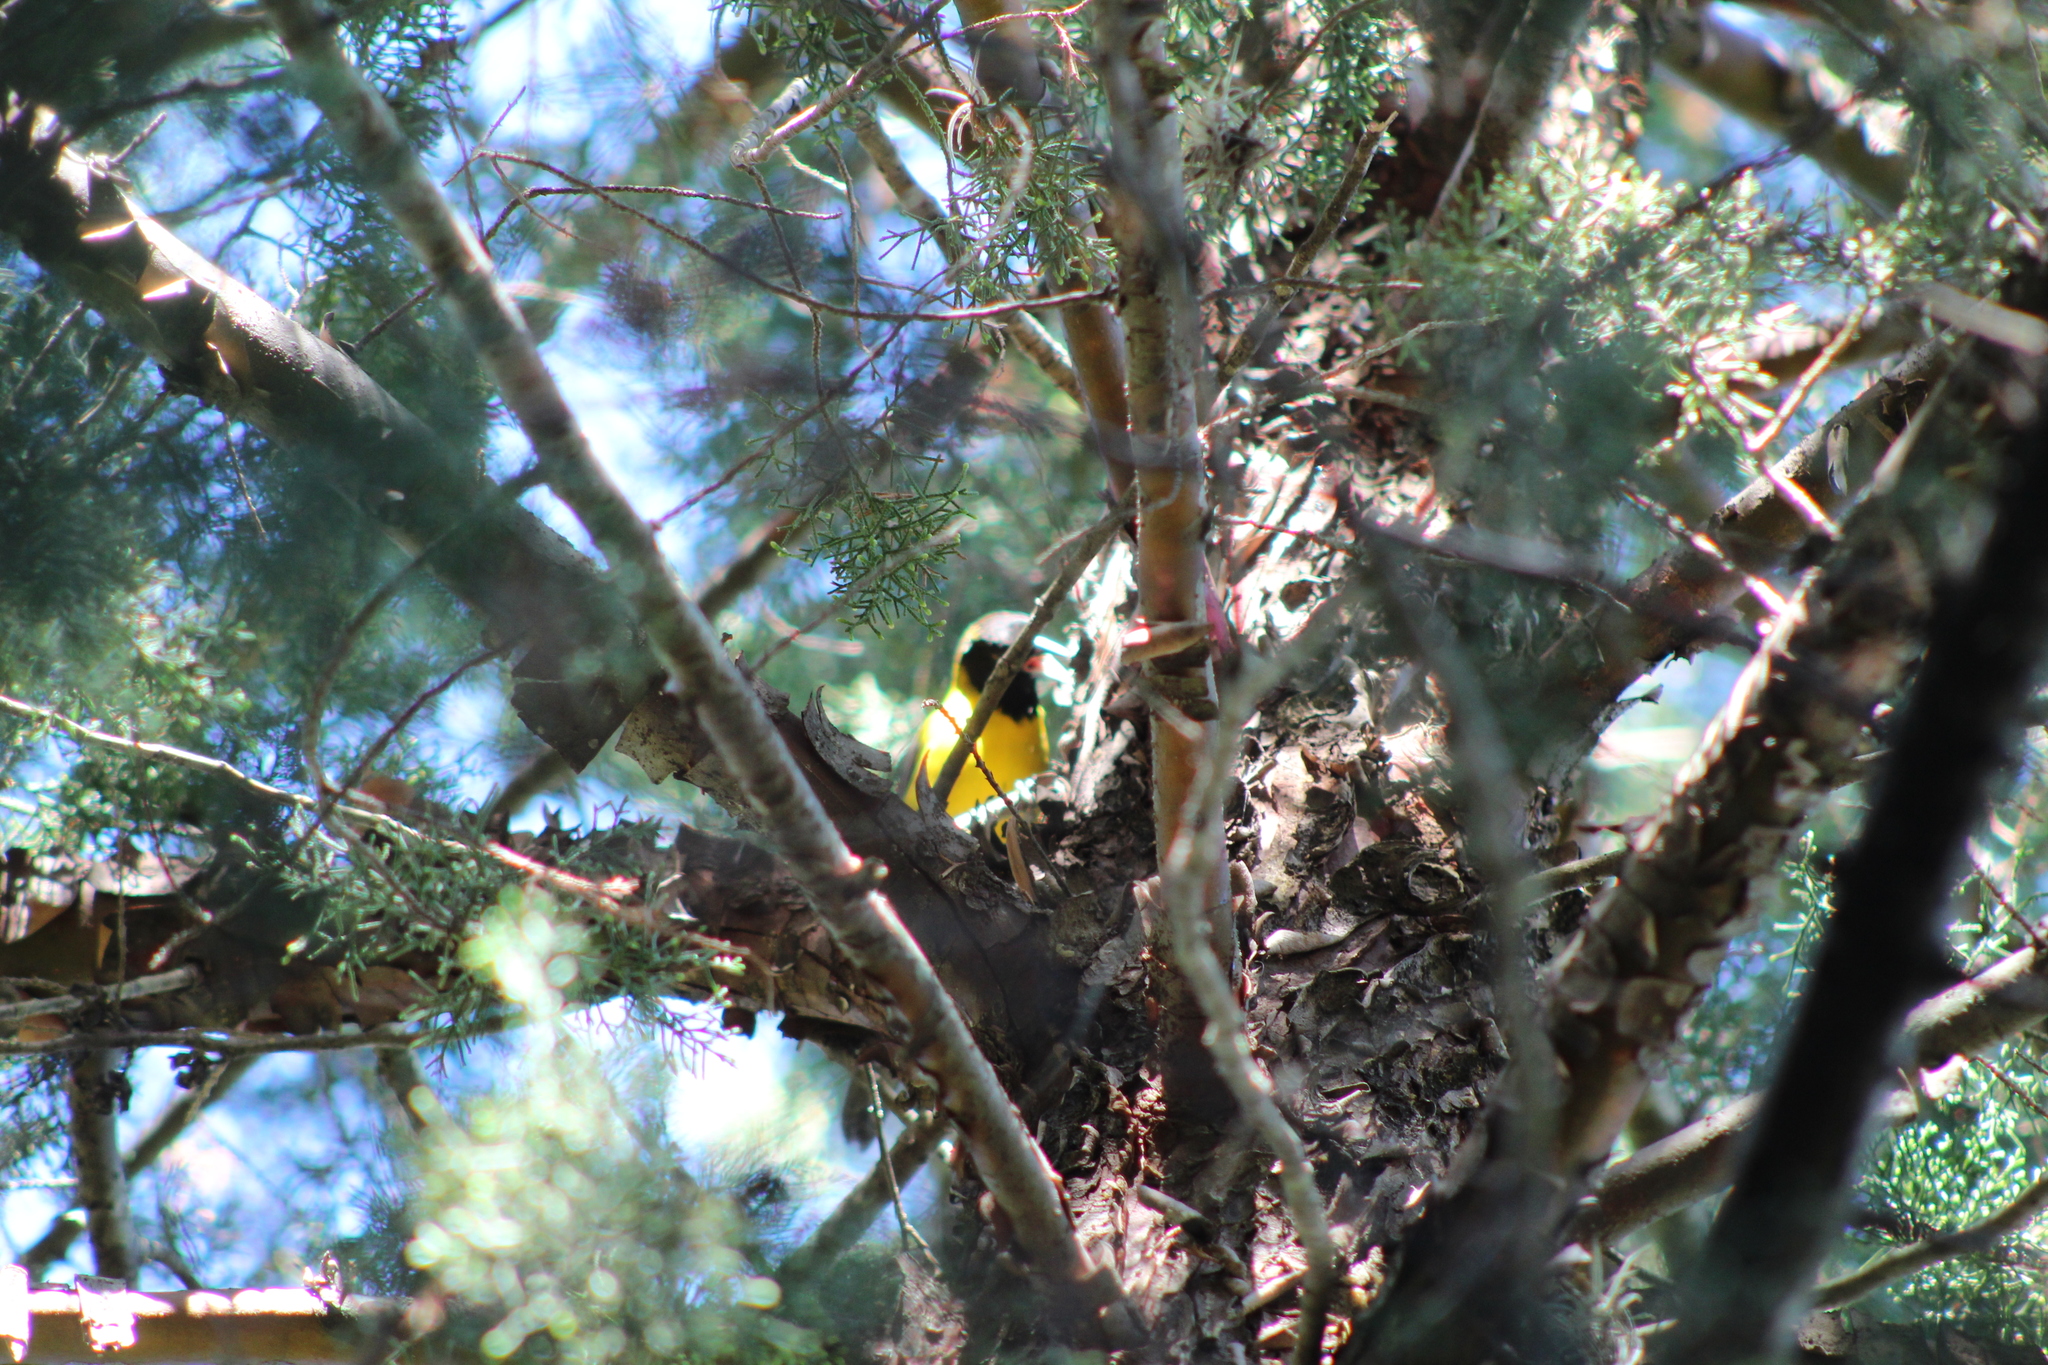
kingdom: Animalia
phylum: Chordata
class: Aves
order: Passeriformes
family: Icteridae
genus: Icterus
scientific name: Icterus graduacauda
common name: Audubon's oriole
